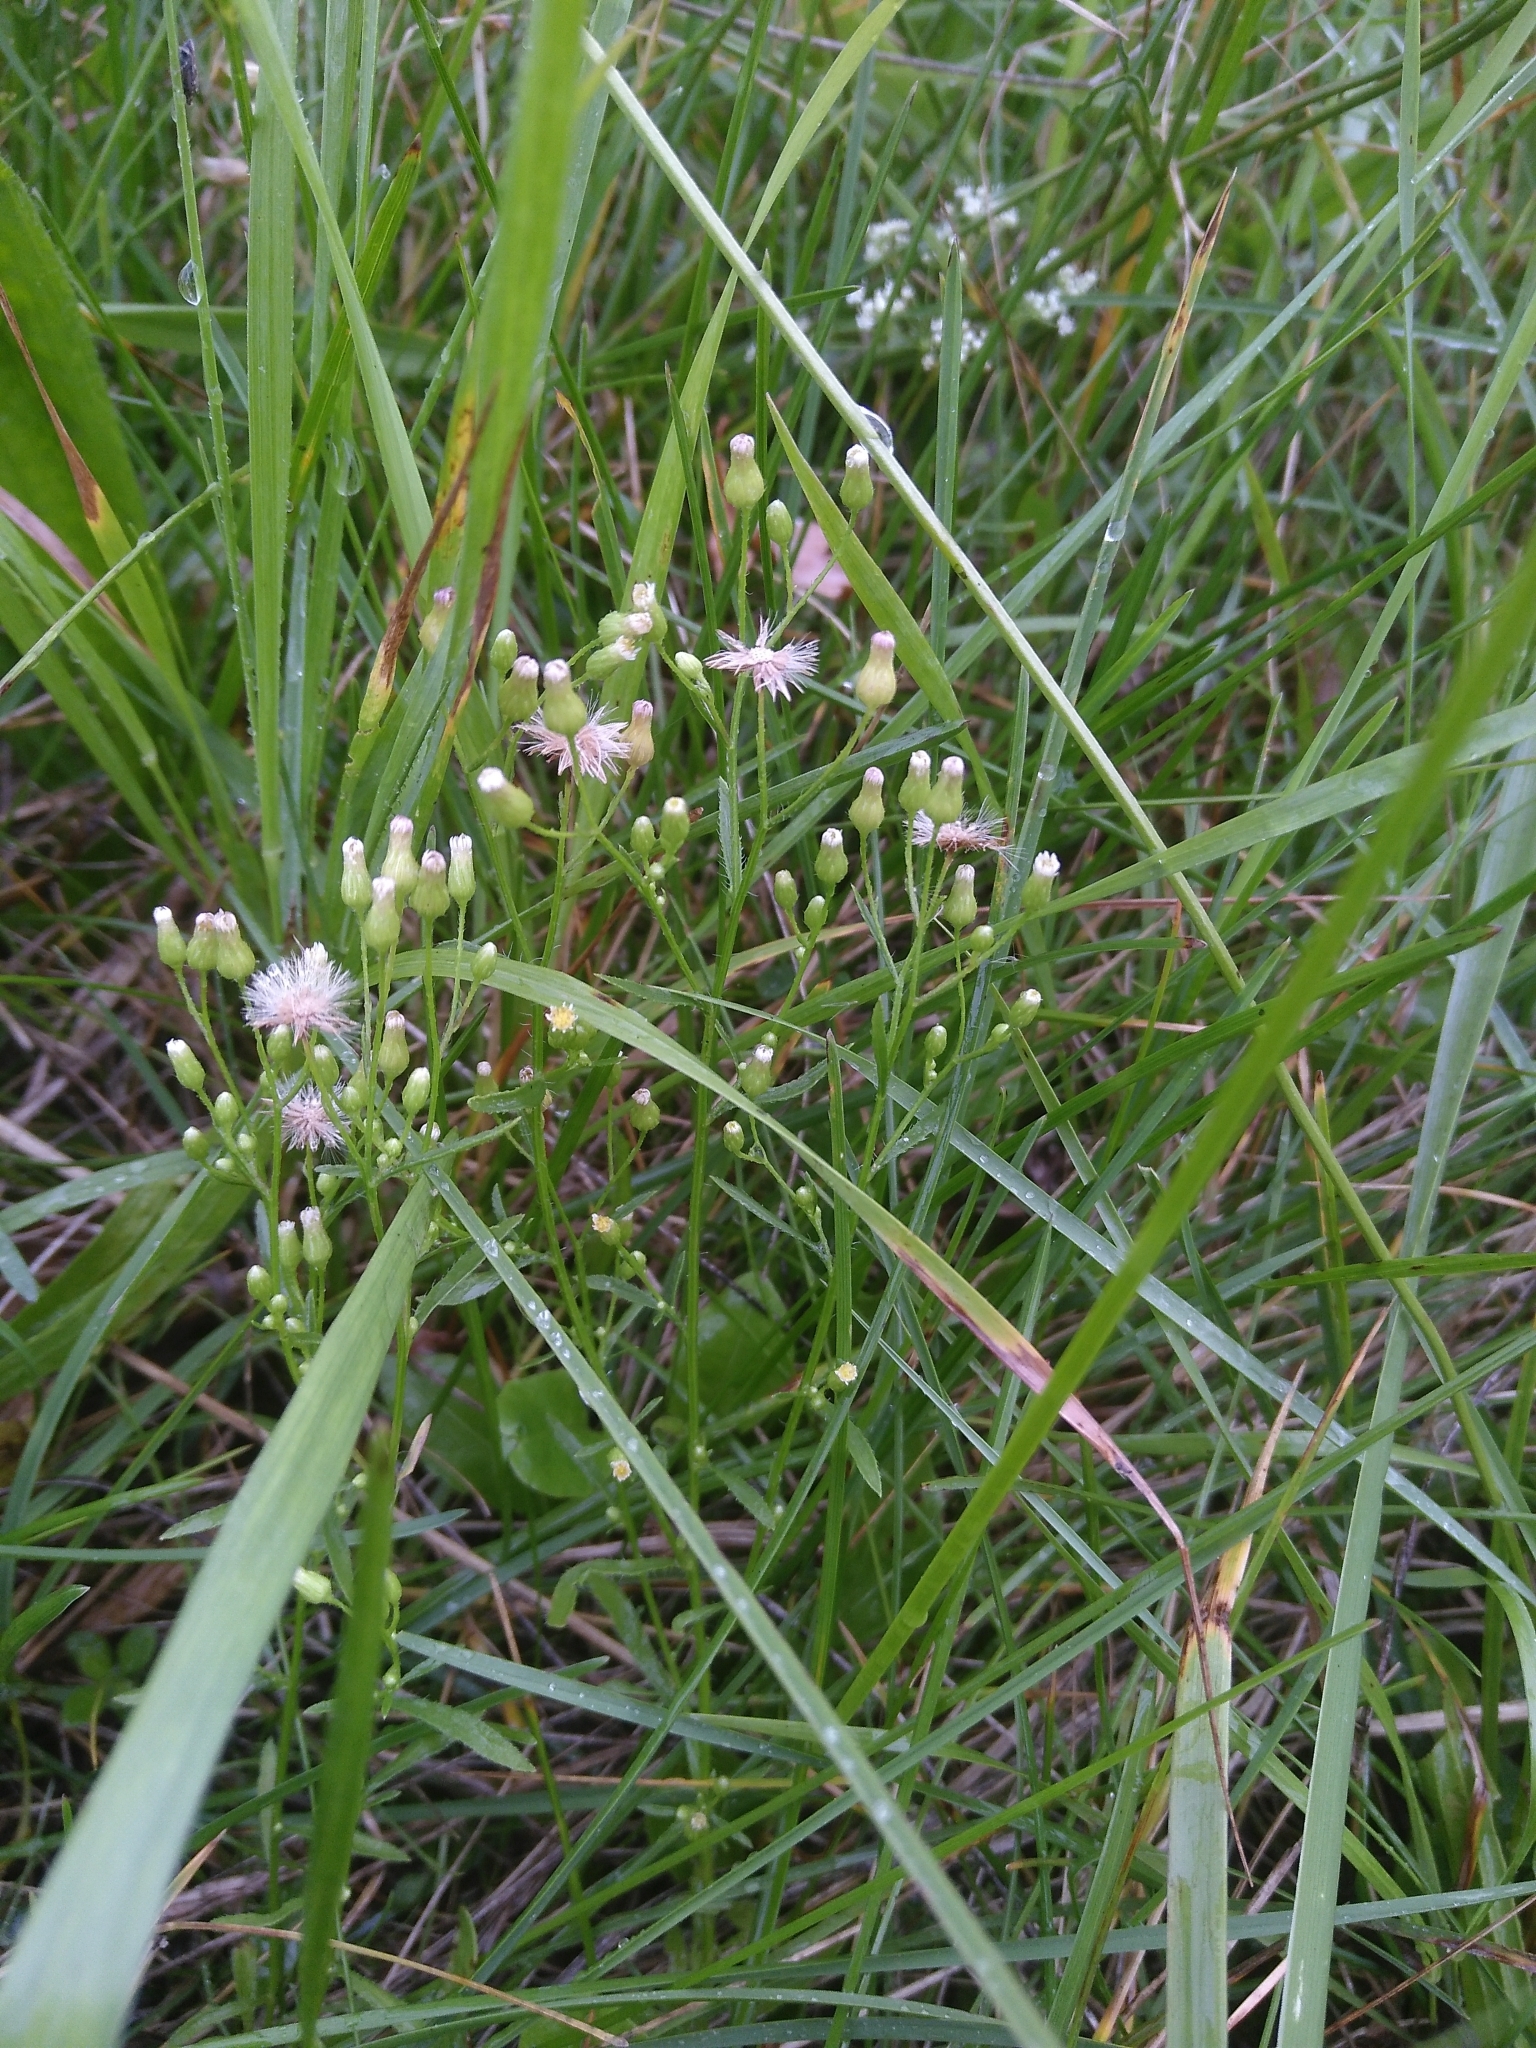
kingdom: Plantae
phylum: Tracheophyta
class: Magnoliopsida
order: Asterales
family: Asteraceae
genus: Erigeron
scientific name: Erigeron canadensis
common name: Canadian fleabane
